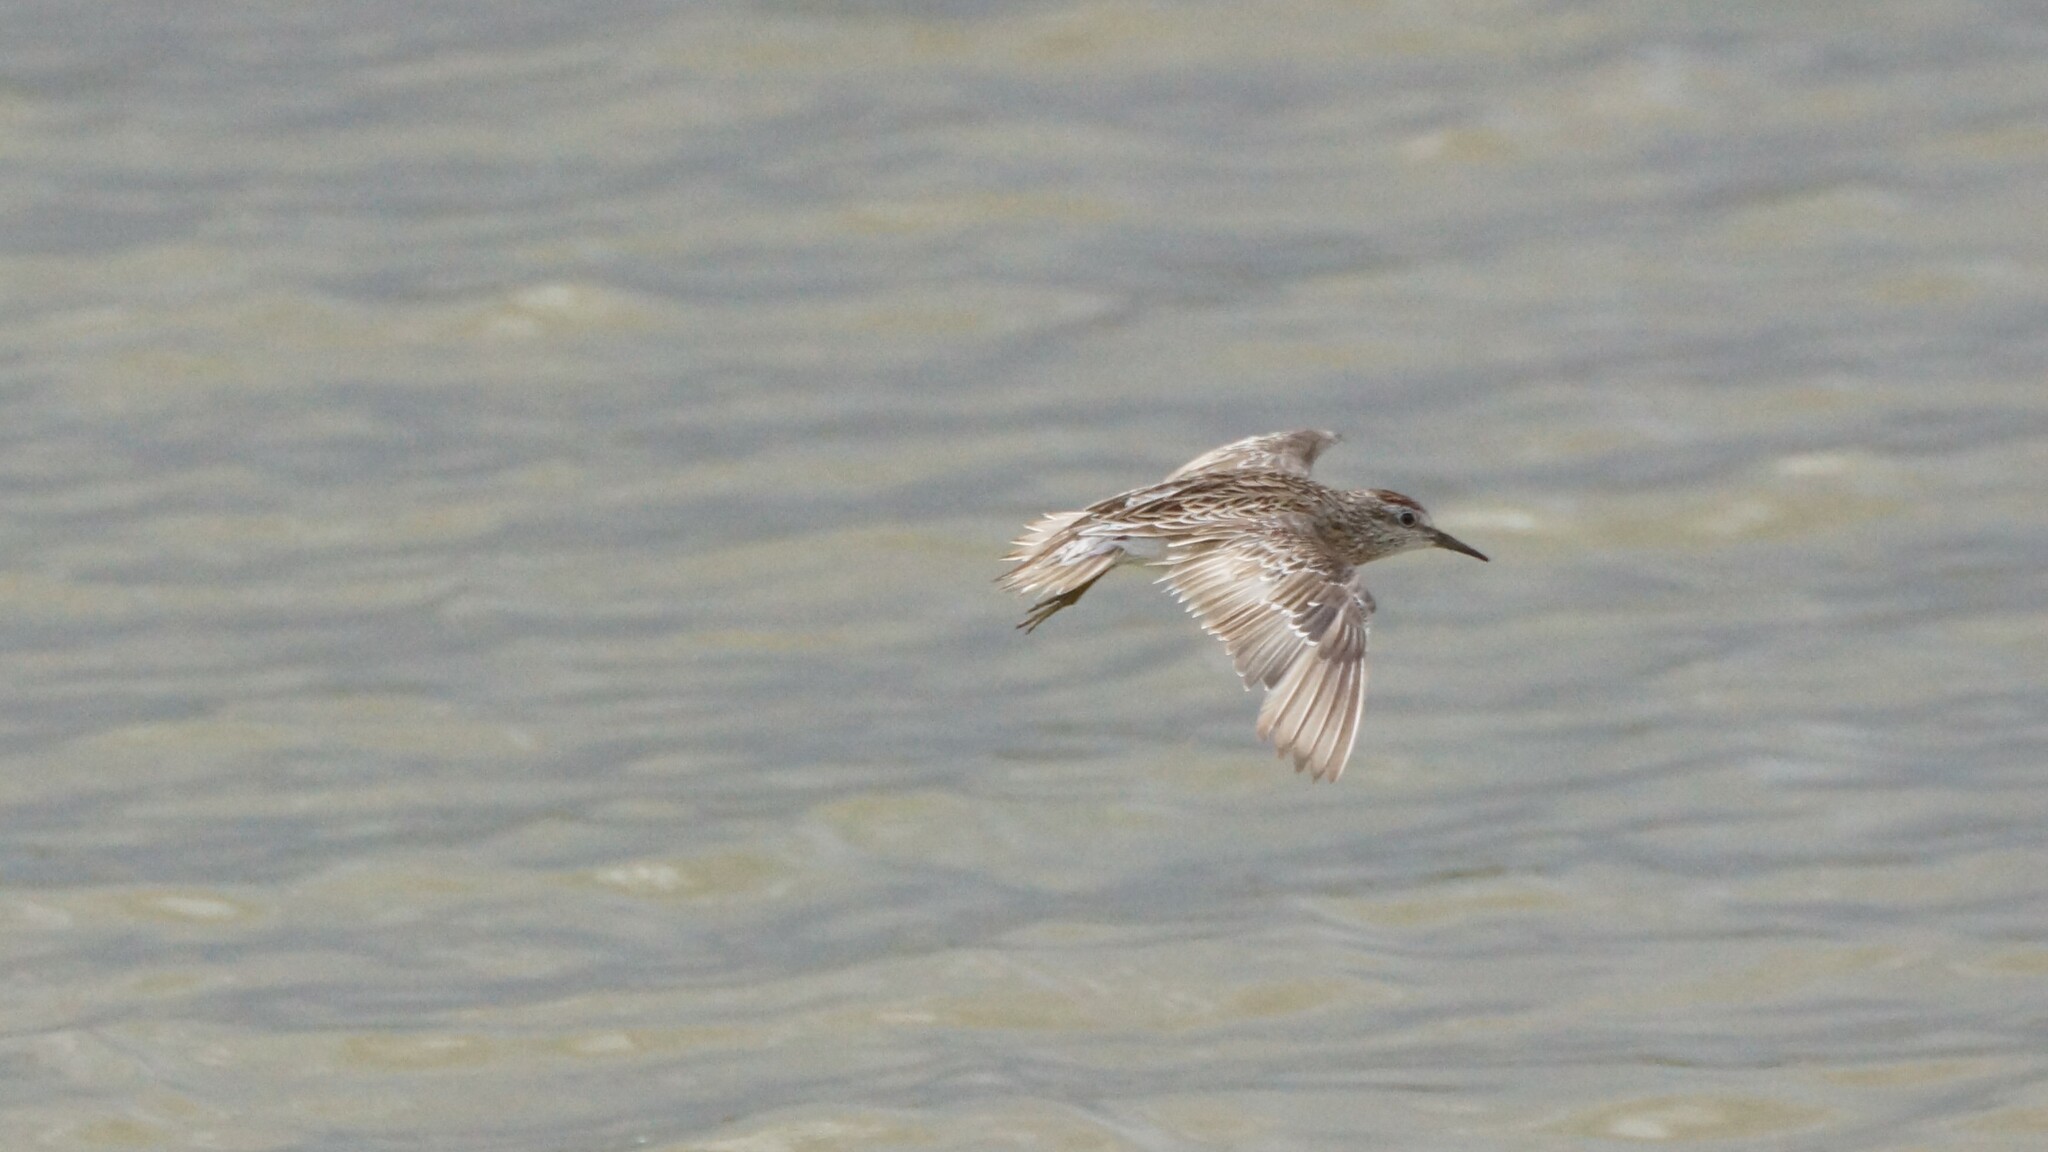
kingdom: Animalia
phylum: Chordata
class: Aves
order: Charadriiformes
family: Scolopacidae
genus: Calidris
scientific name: Calidris acuminata
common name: Sharp-tailed sandpiper
